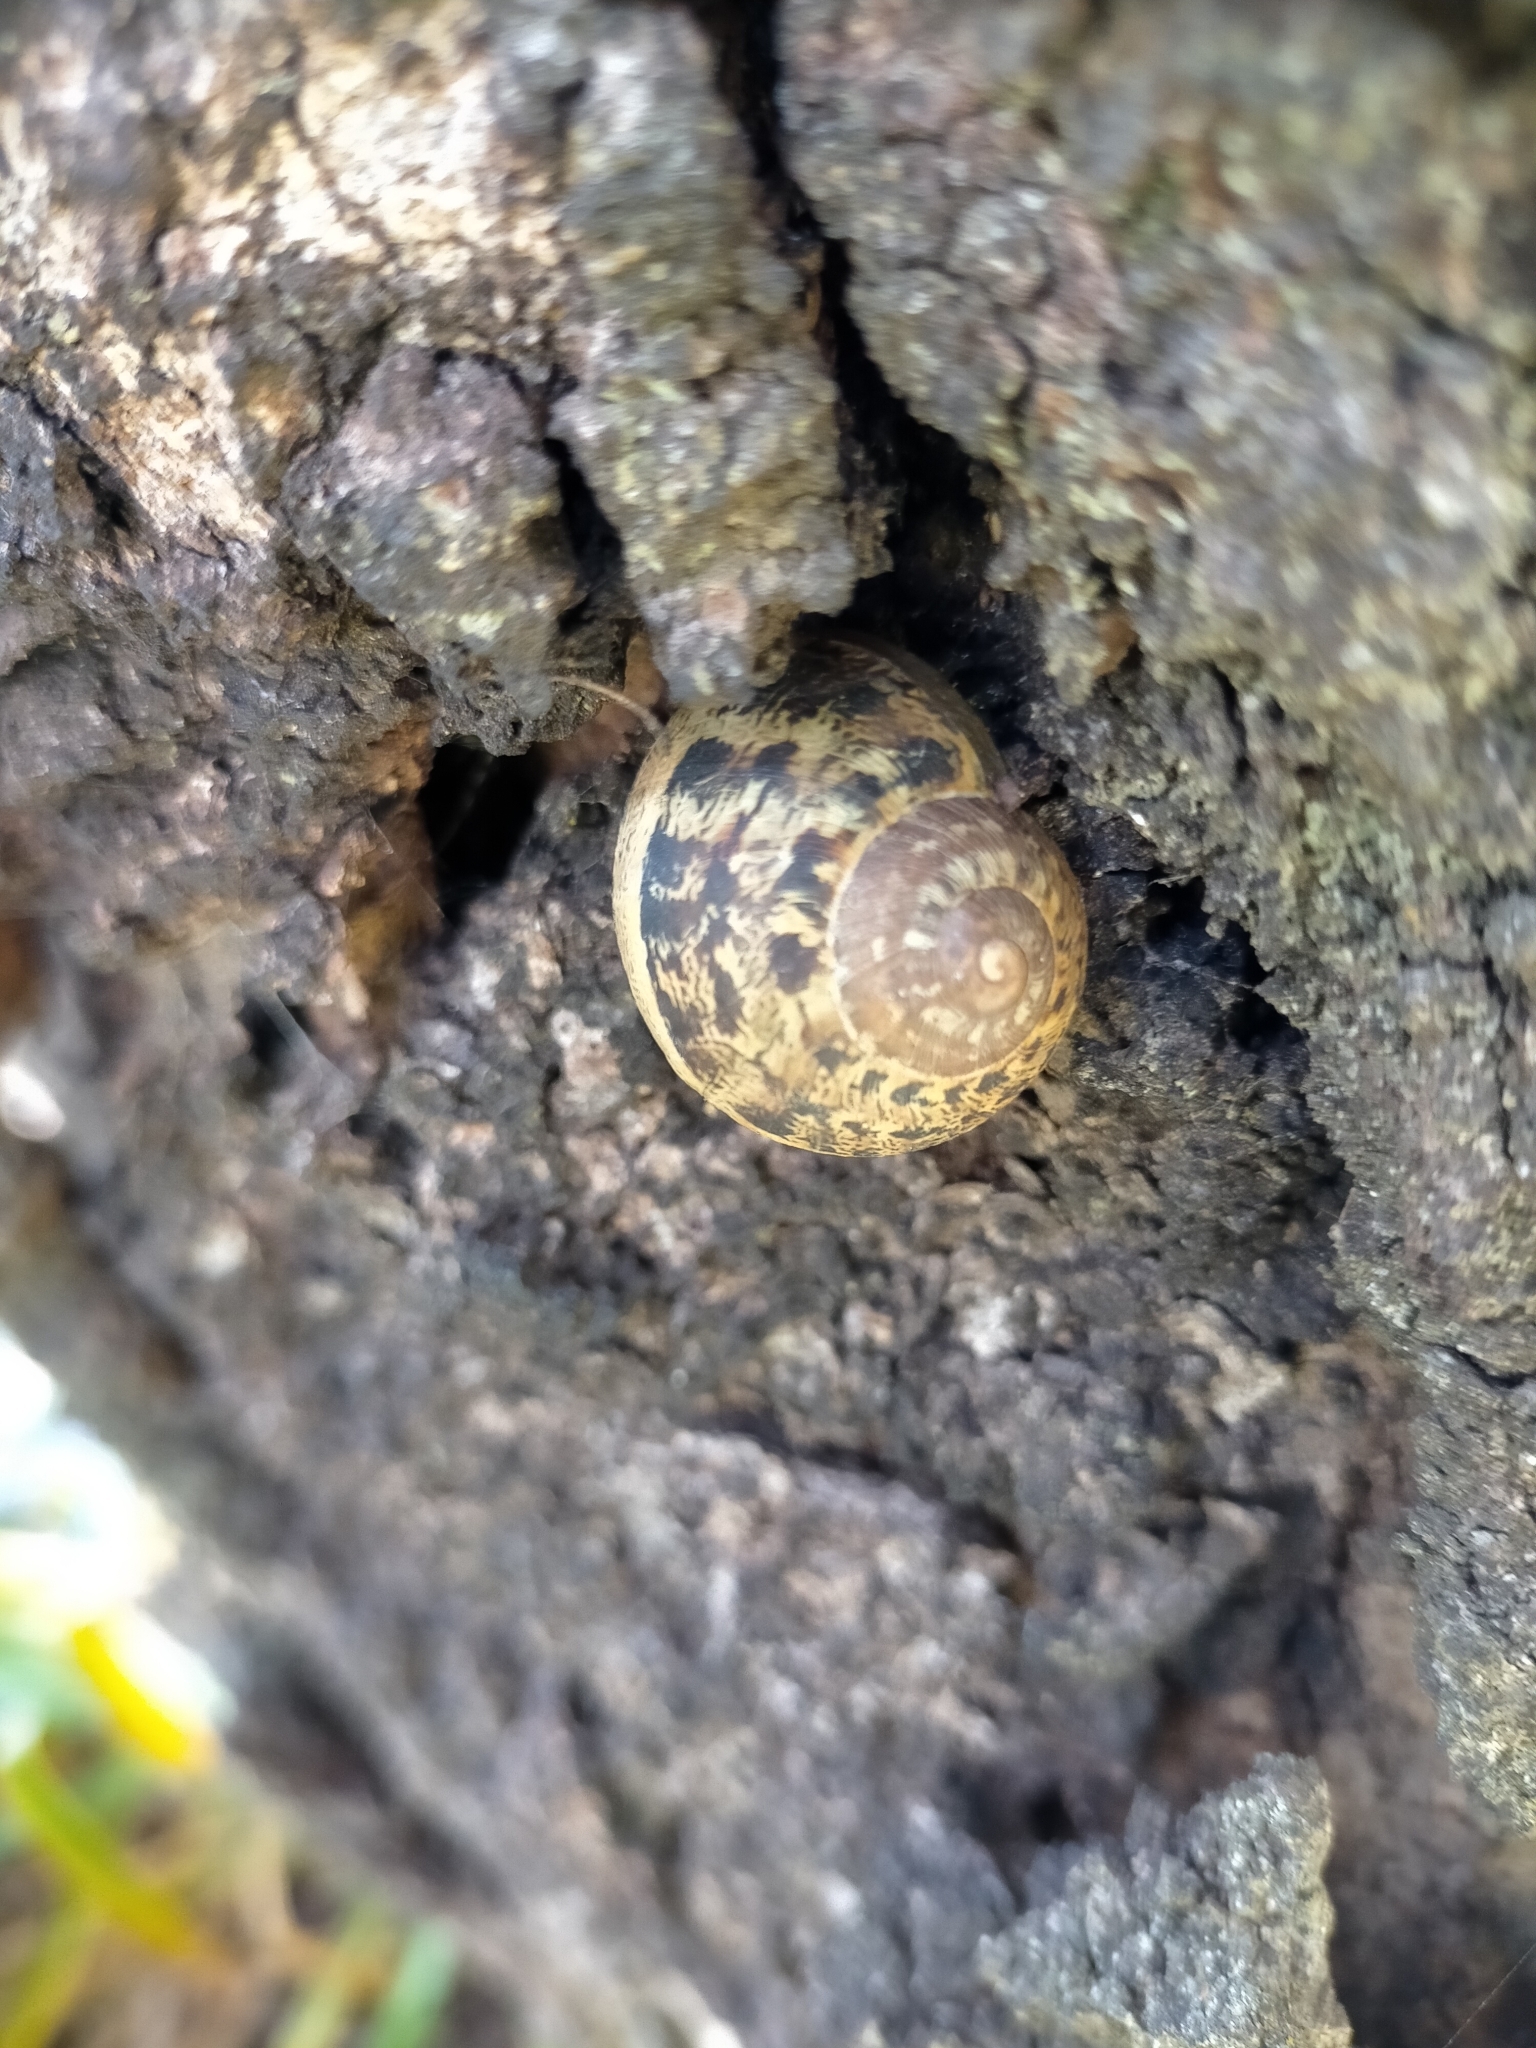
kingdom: Animalia
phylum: Mollusca
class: Gastropoda
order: Stylommatophora
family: Helicidae
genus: Cornu
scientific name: Cornu aspersum
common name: Brown garden snail
